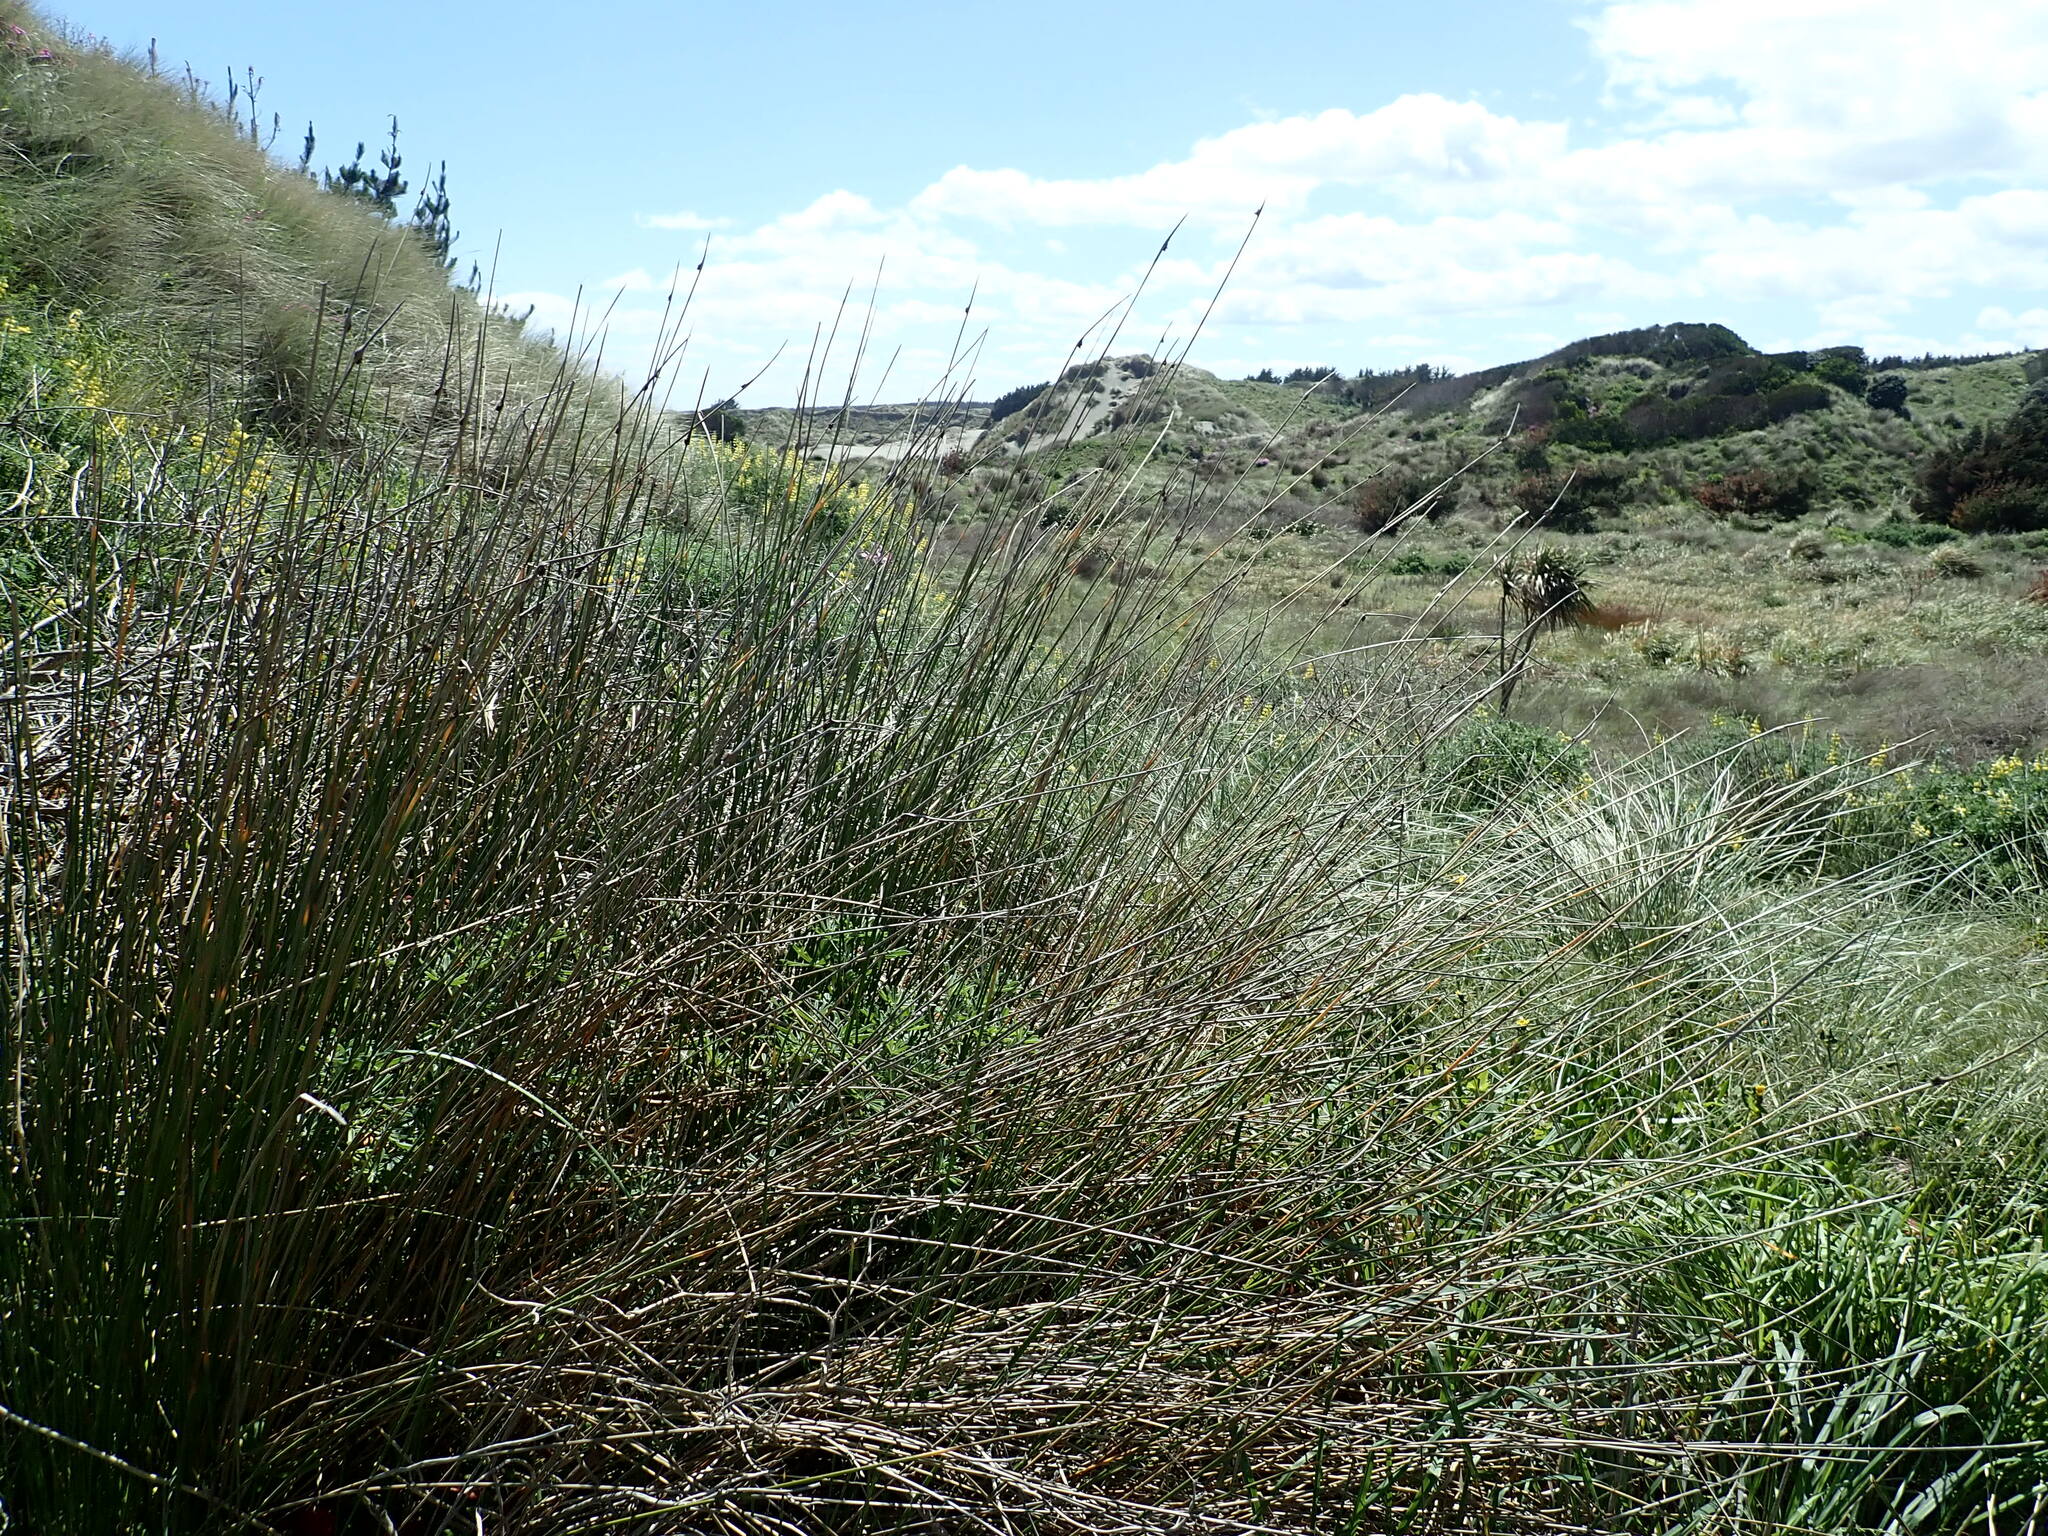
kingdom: Plantae
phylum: Tracheophyta
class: Liliopsida
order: Poales
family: Cyperaceae
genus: Ficinia
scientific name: Ficinia nodosa
